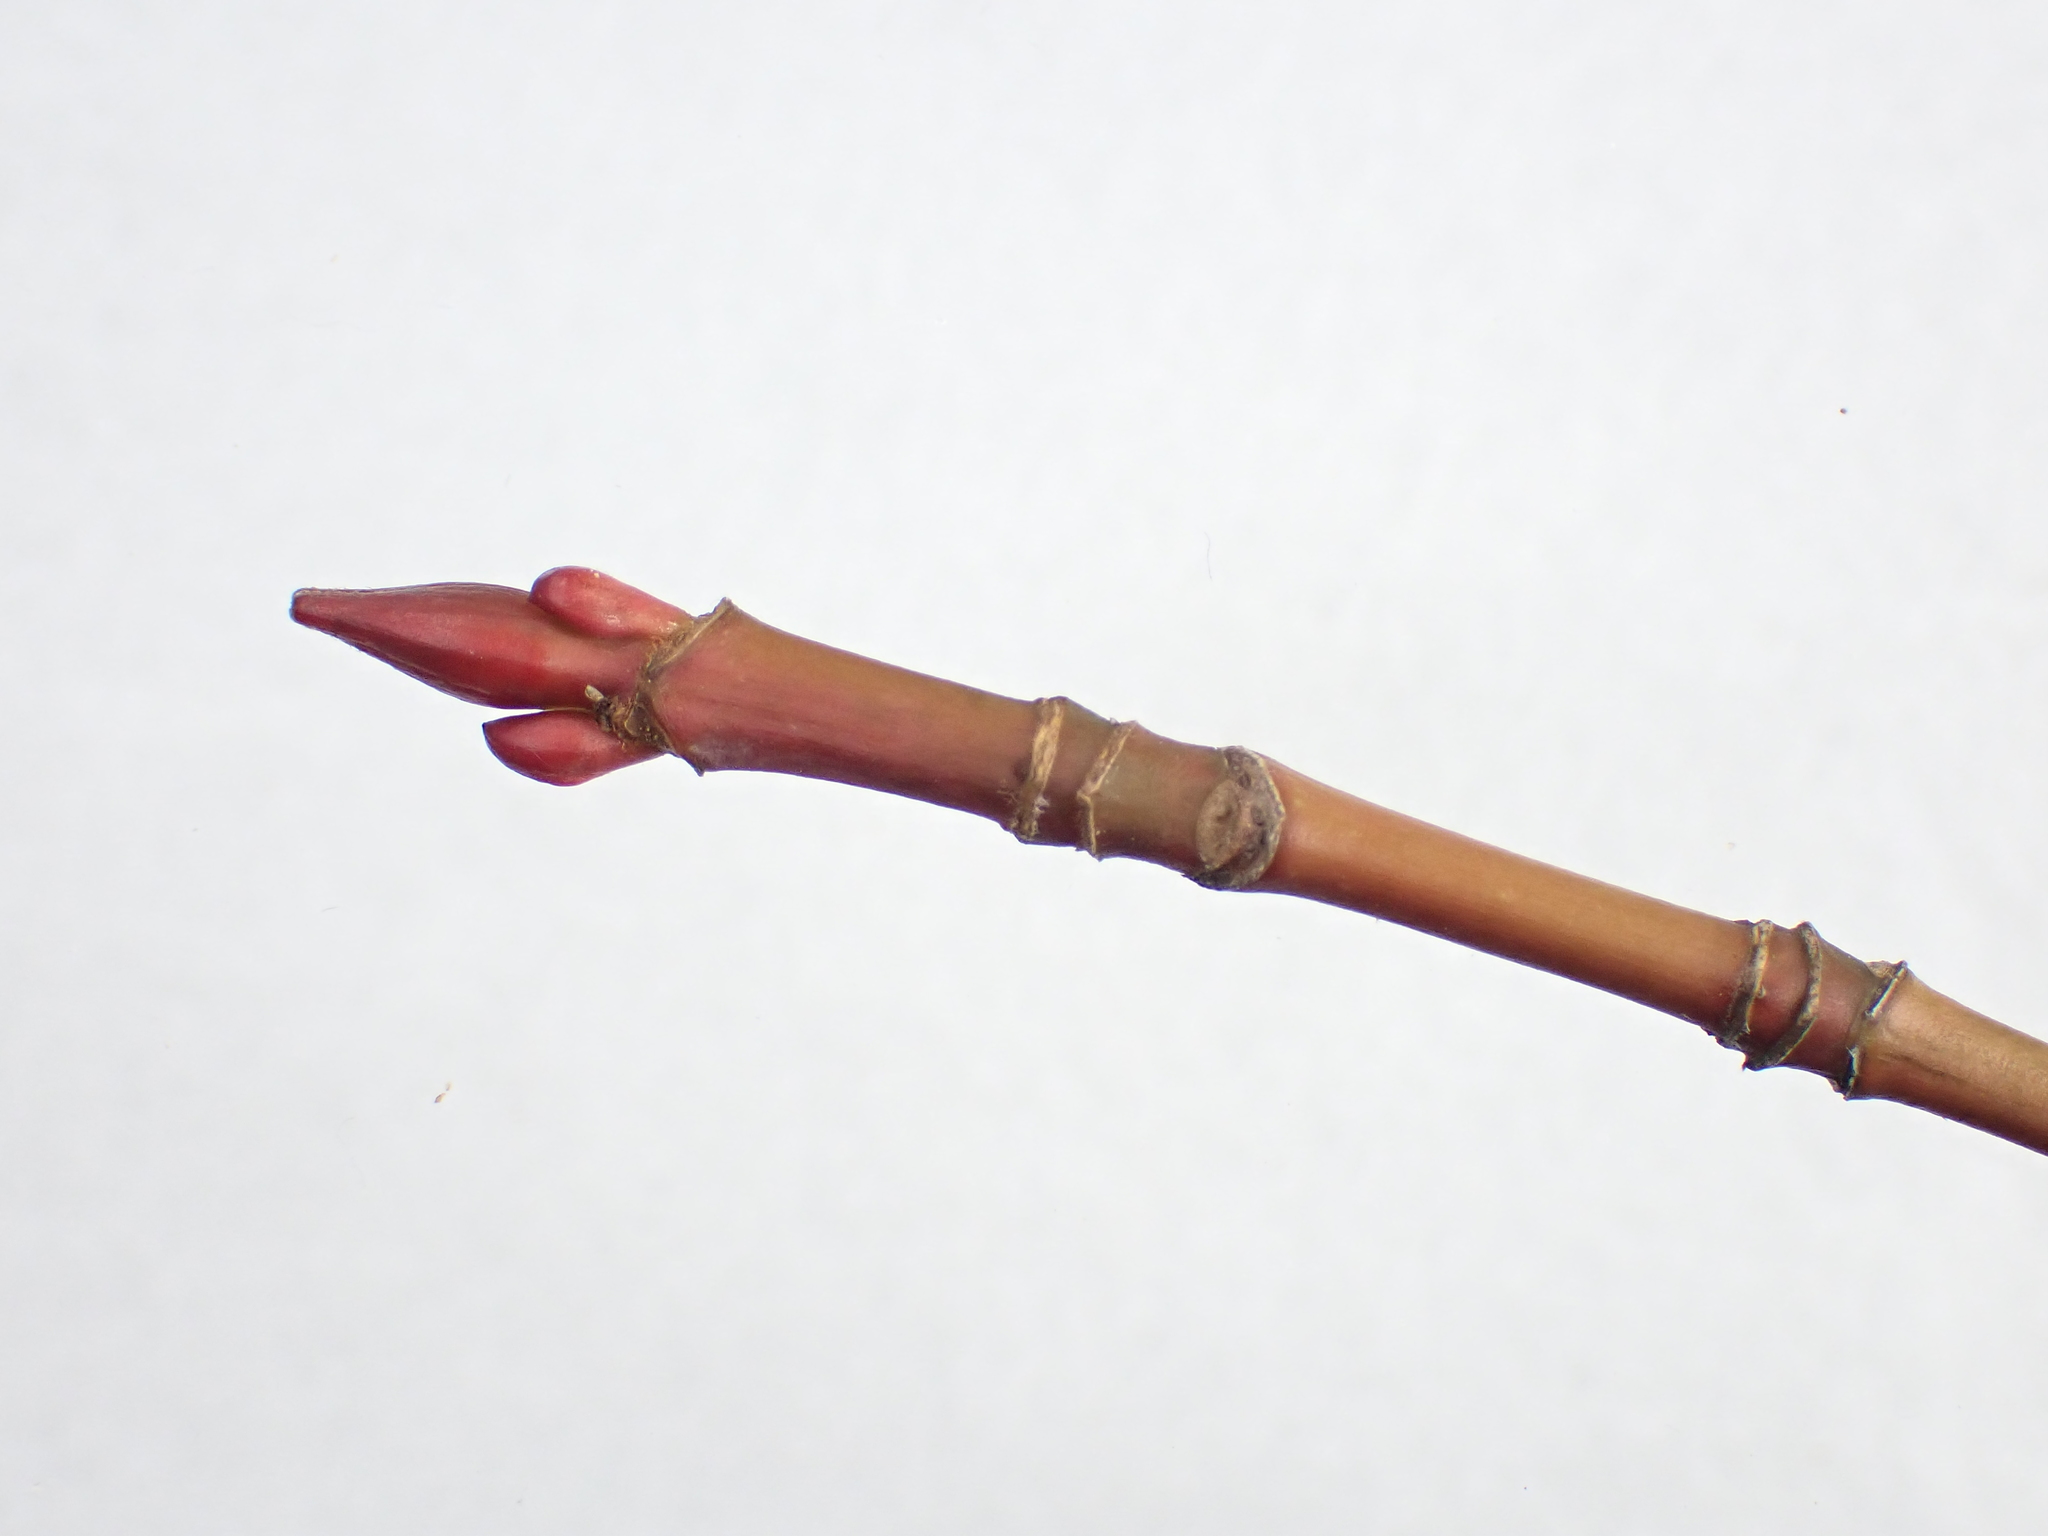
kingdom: Plantae
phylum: Tracheophyta
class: Magnoliopsida
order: Sapindales
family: Sapindaceae
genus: Acer
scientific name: Acer pensylvanicum
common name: Moosewood
